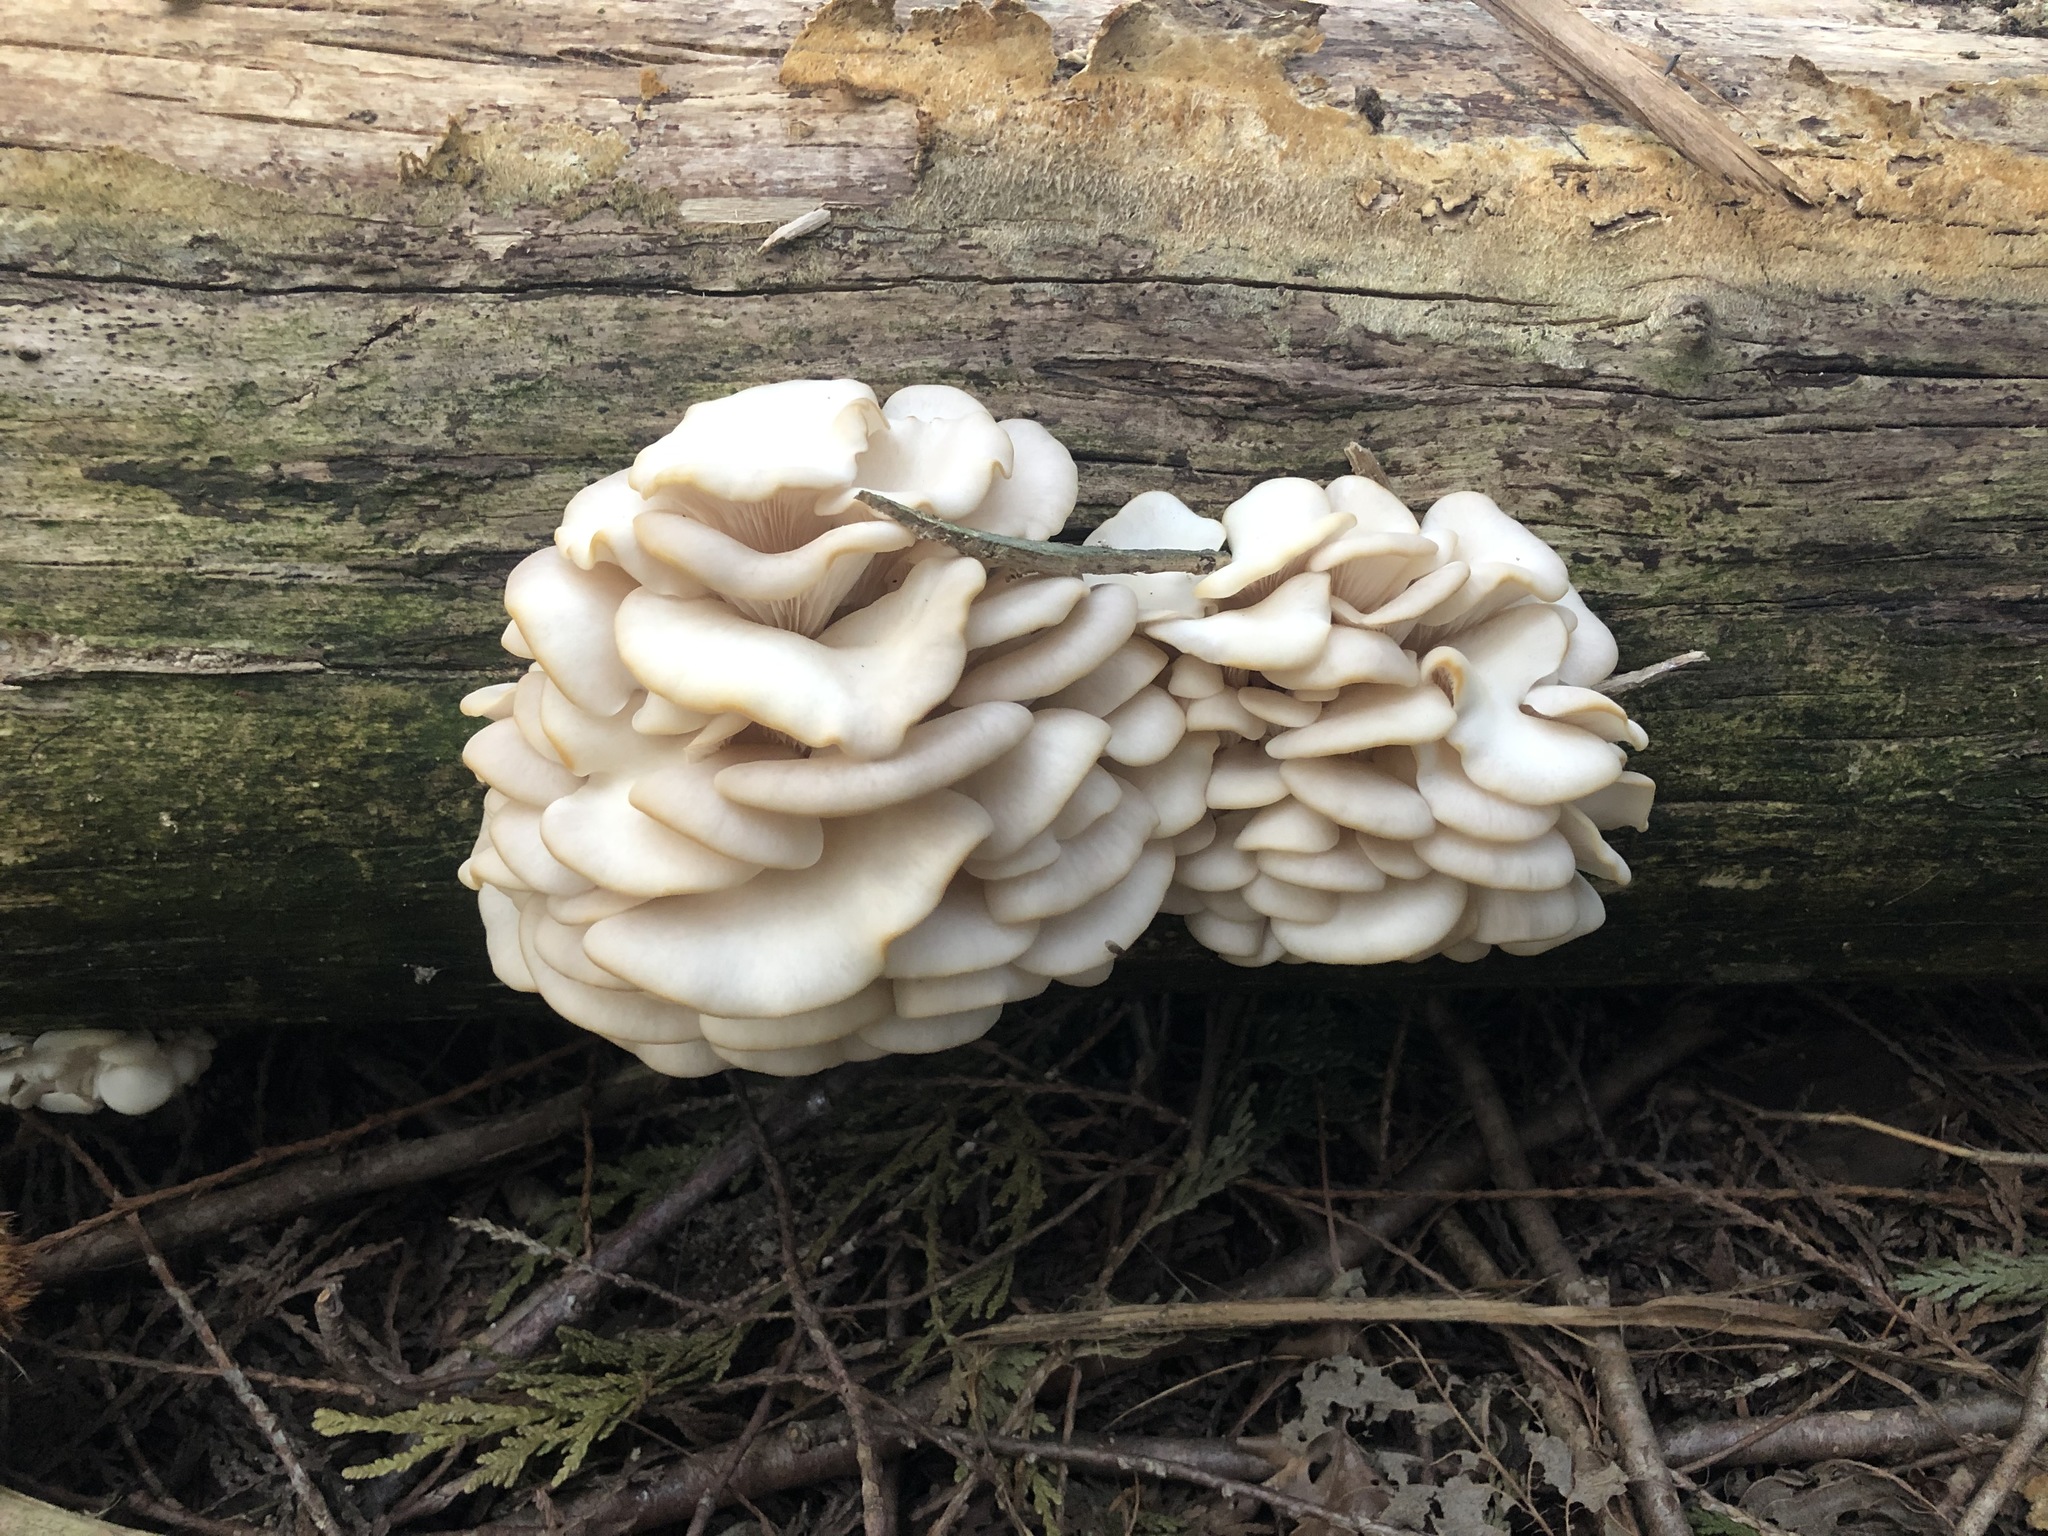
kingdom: Fungi
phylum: Basidiomycota
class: Agaricomycetes
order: Agaricales
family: Marasmiaceae
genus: Pleurocybella
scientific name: Pleurocybella porrigens
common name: Angel's wings
